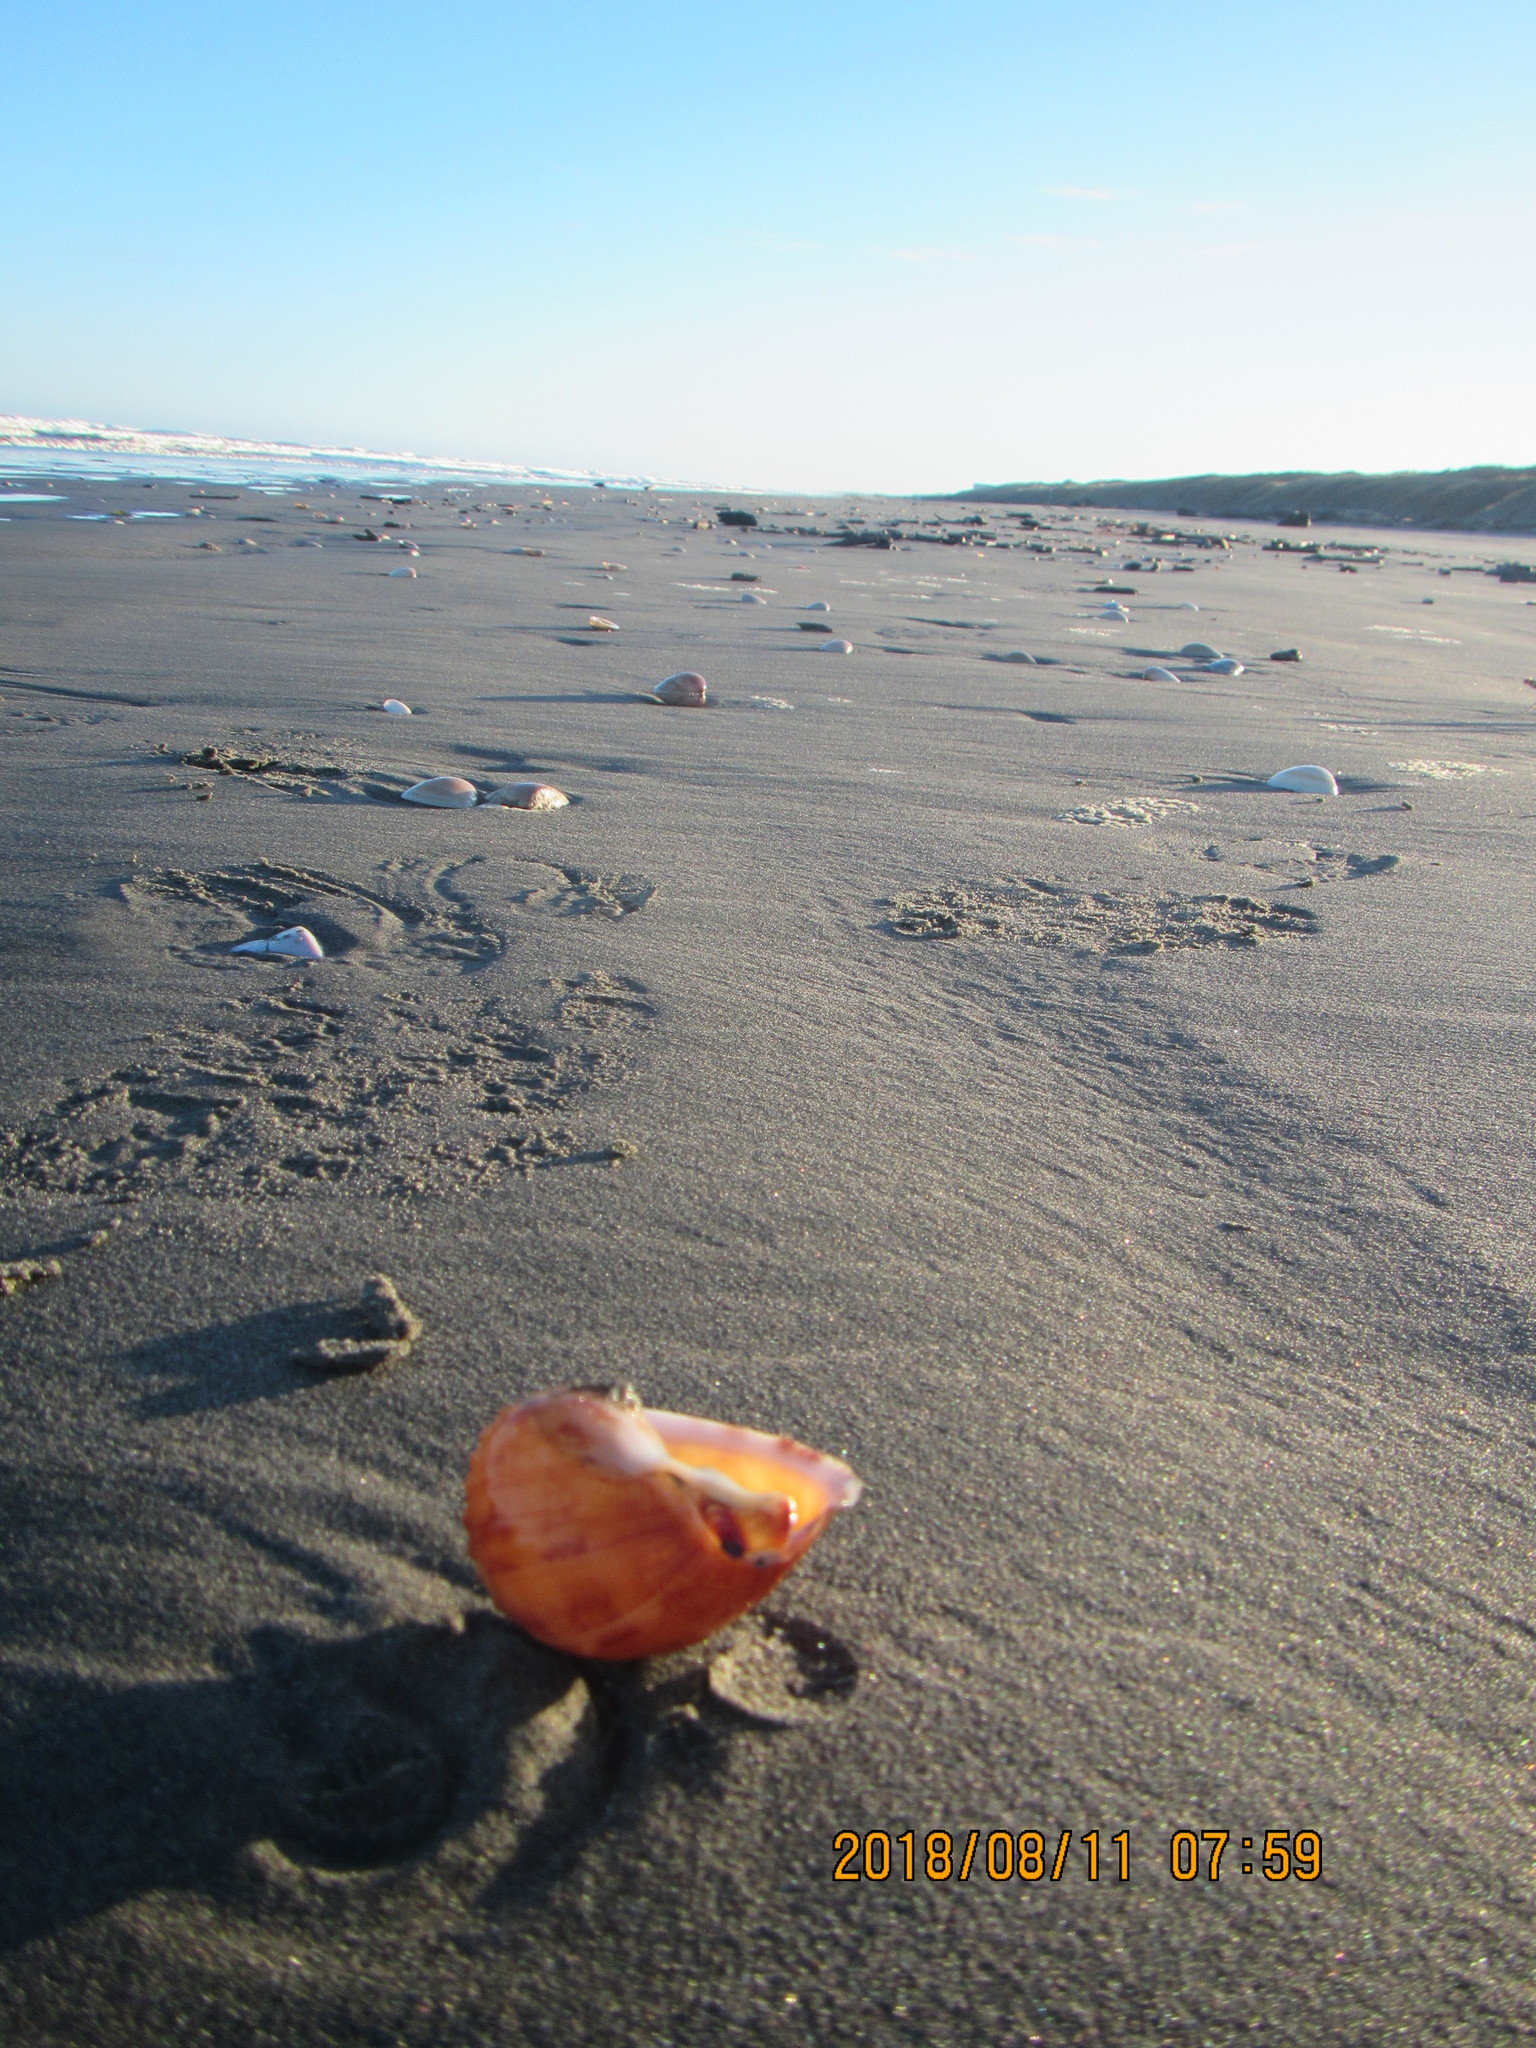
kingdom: Animalia
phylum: Mollusca
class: Gastropoda
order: Littorinimorpha
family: Cassidae
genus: Semicassis
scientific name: Semicassis pyrum
